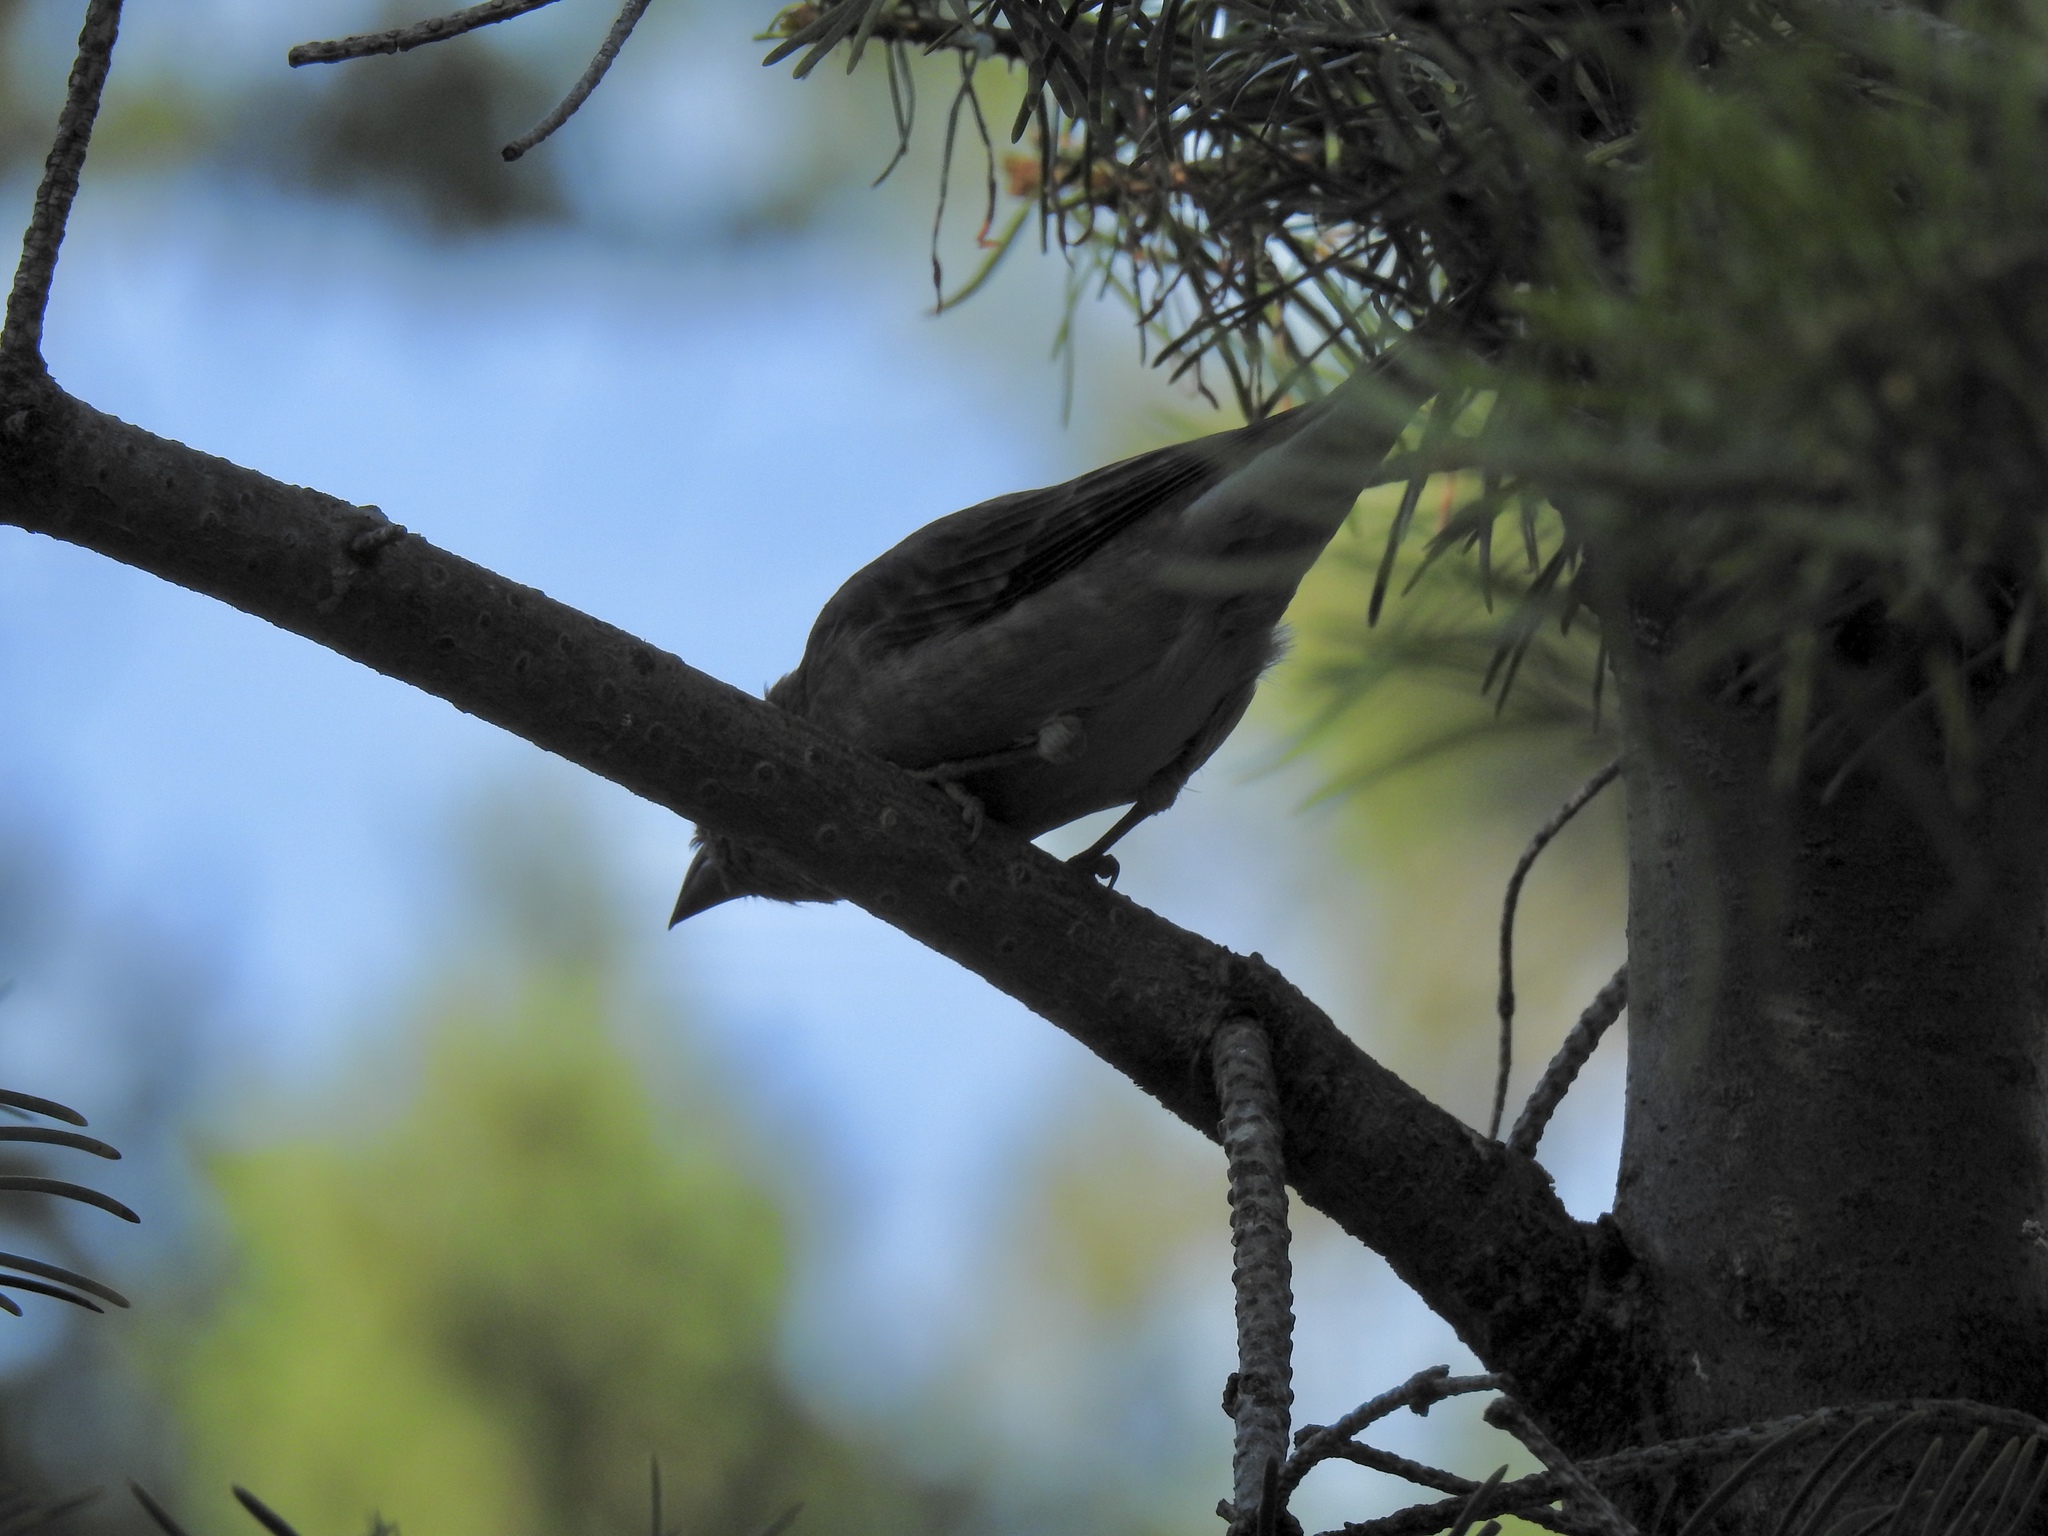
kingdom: Animalia
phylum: Chordata
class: Aves
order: Passeriformes
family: Fringillidae
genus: Haemorhous
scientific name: Haemorhous cassinii
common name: Cassin's finch
